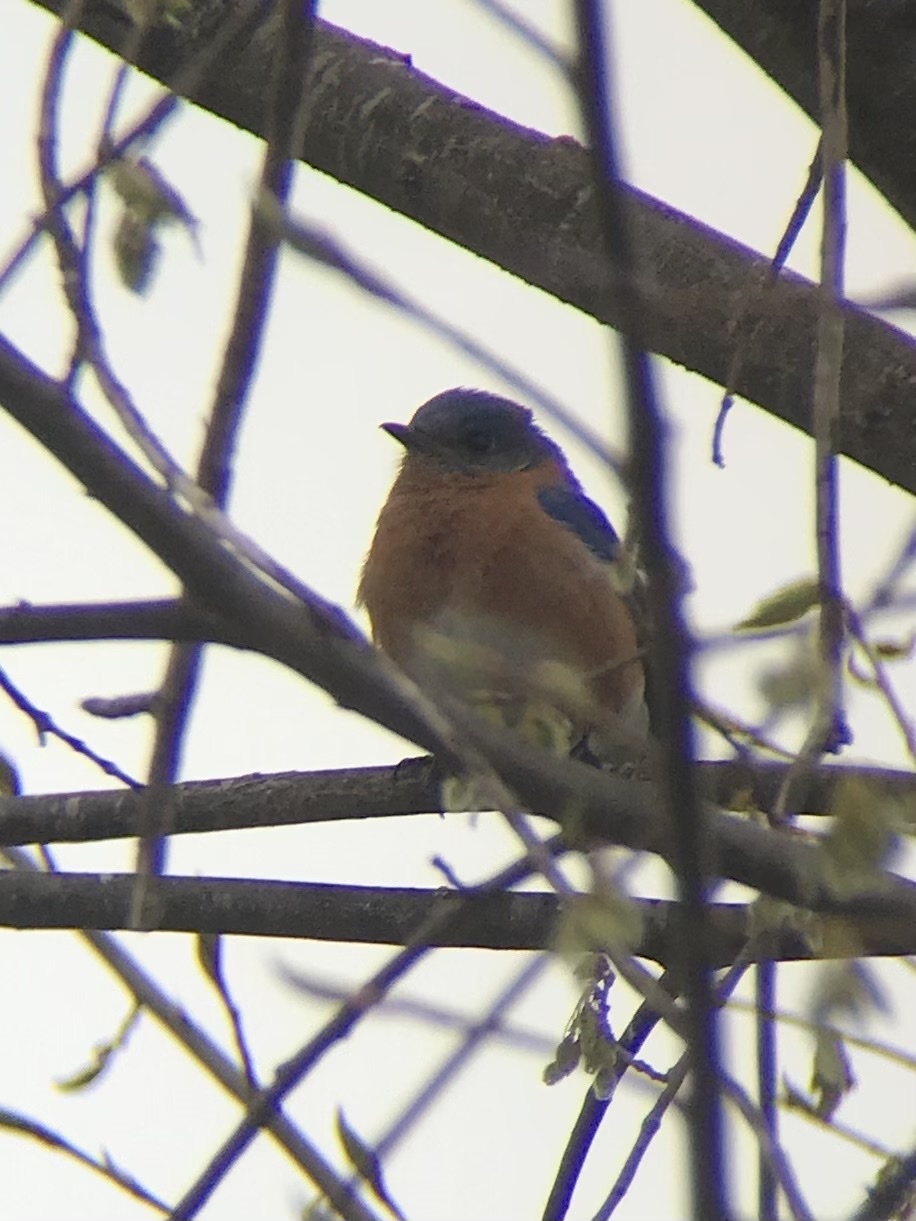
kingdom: Animalia
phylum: Chordata
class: Aves
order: Passeriformes
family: Turdidae
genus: Sialia
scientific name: Sialia sialis
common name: Eastern bluebird
